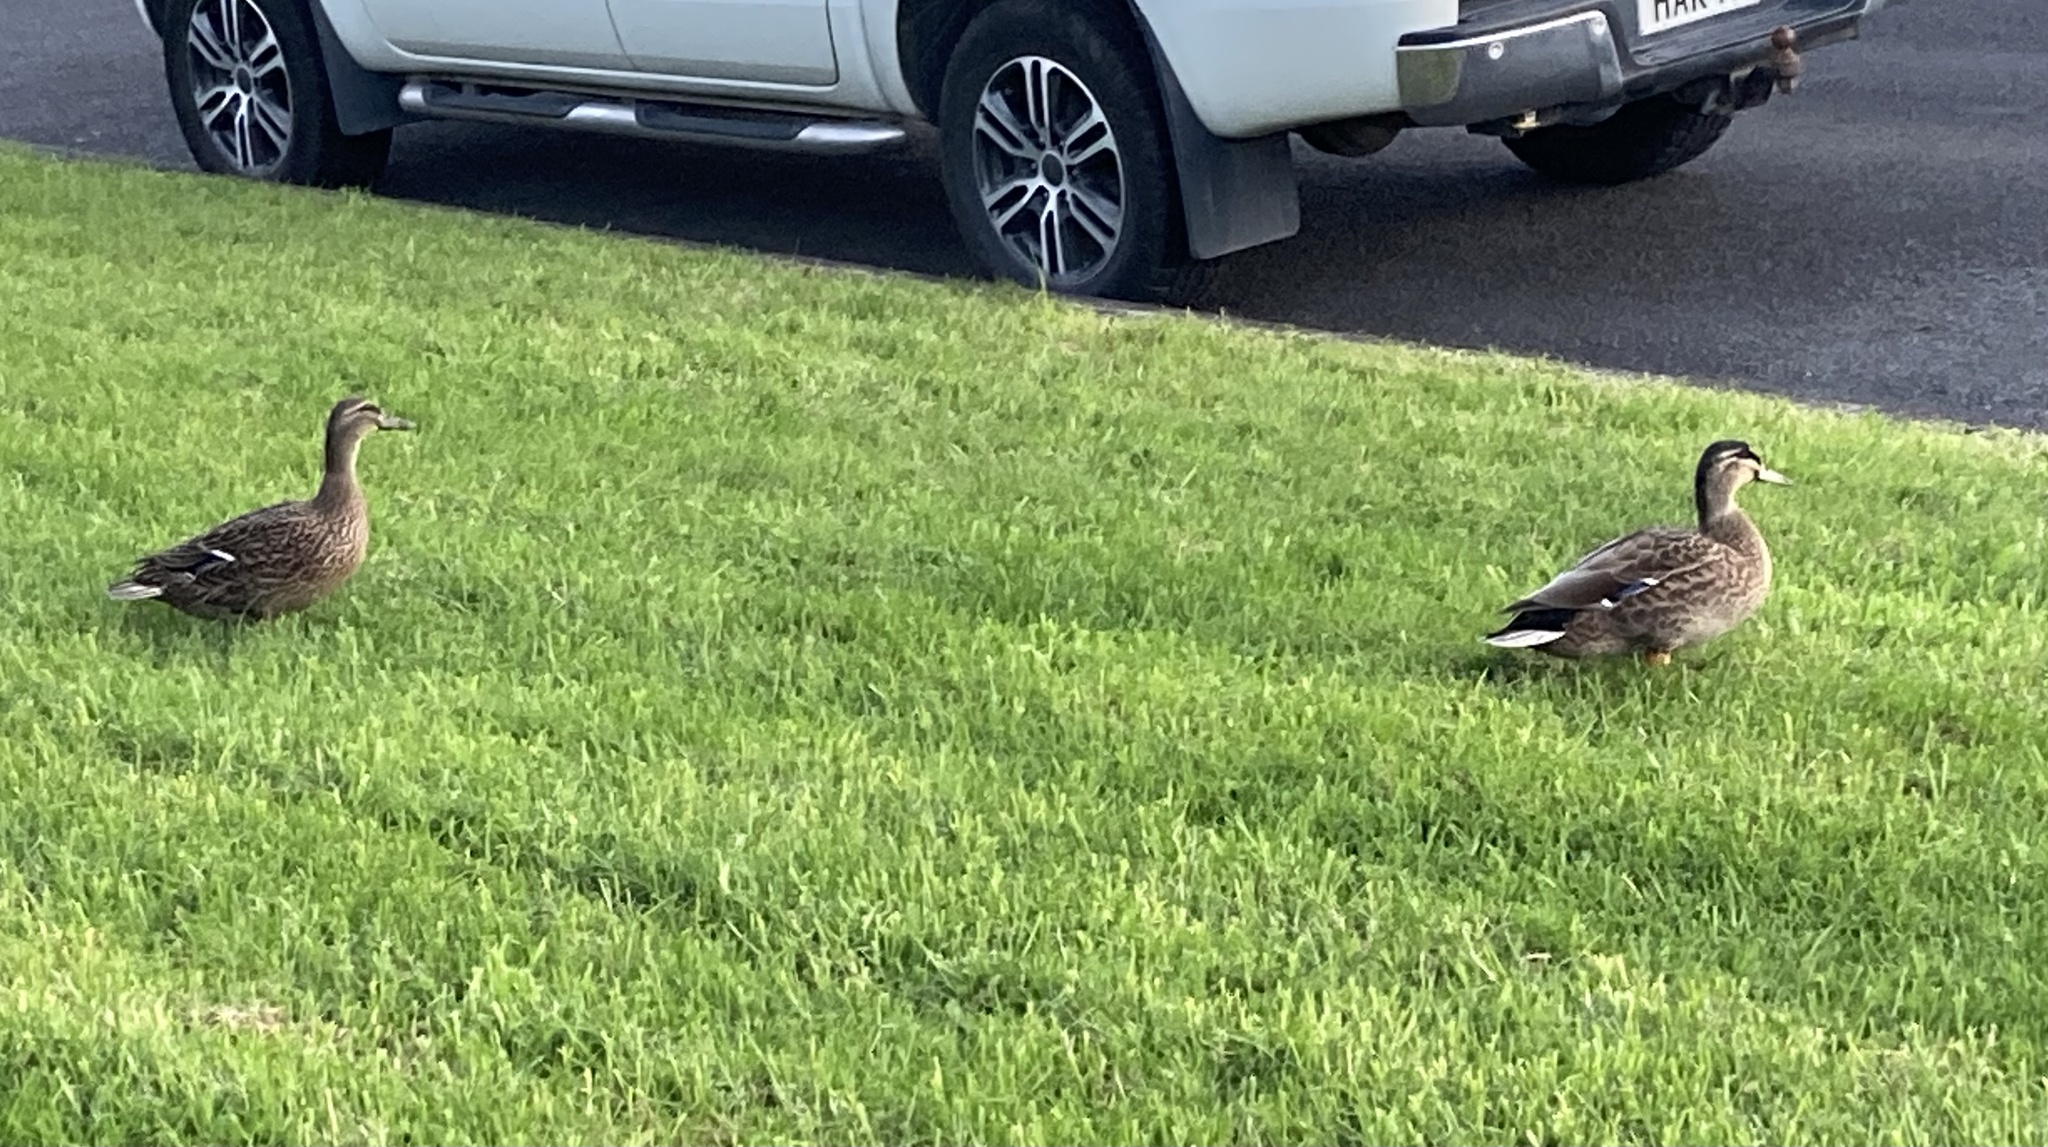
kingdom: Animalia
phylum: Chordata
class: Aves
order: Anseriformes
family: Anatidae
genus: Anas
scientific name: Anas
